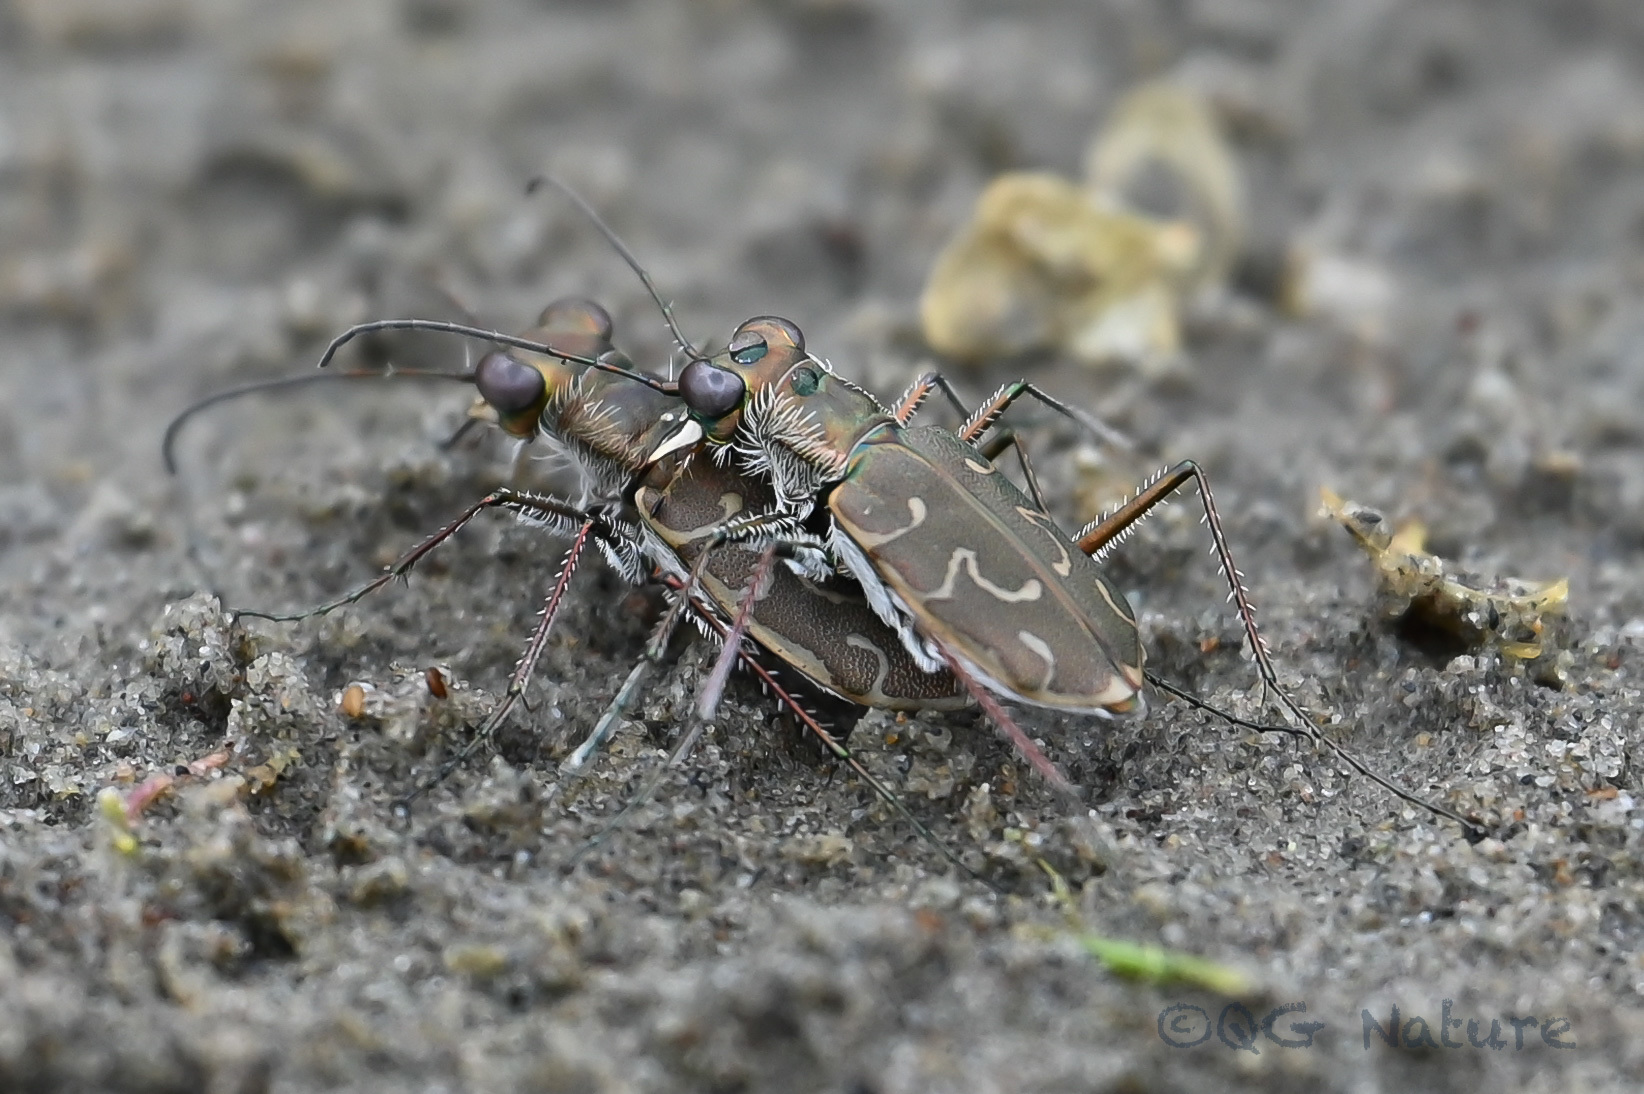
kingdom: Animalia
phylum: Arthropoda
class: Insecta
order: Coleoptera
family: Carabidae
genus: Cylindera
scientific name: Cylindera elisae
